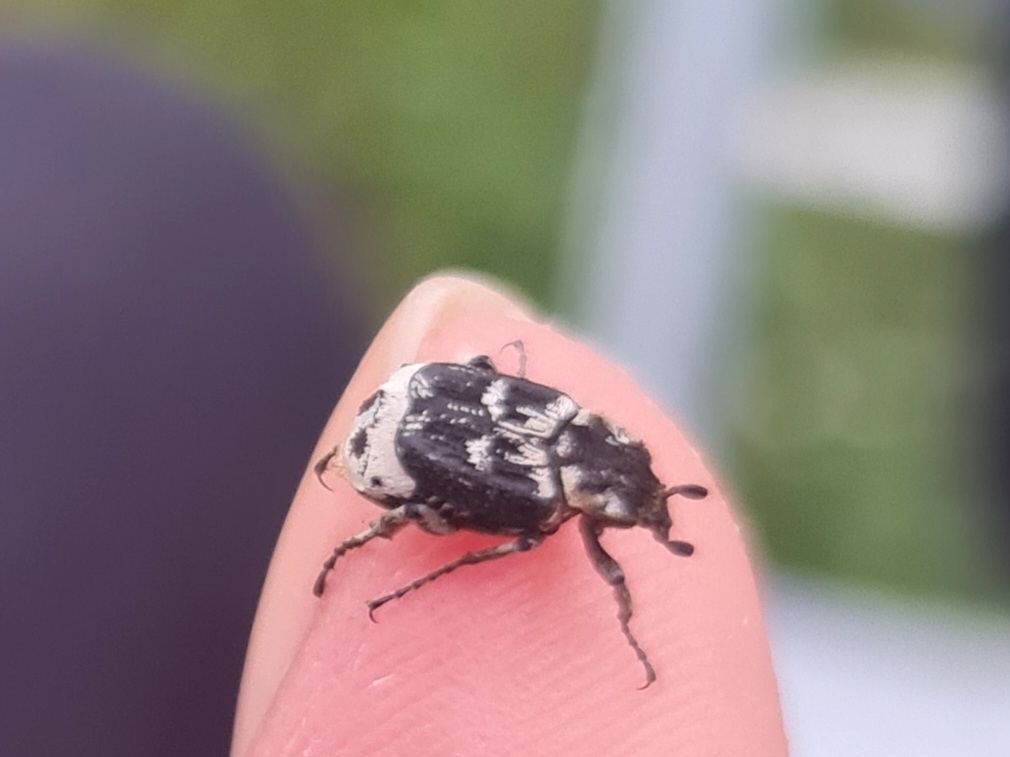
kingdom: Animalia
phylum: Arthropoda
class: Insecta
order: Coleoptera
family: Scarabaeidae
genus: Valgus
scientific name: Valgus hemipterus
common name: Bug flower chafer
